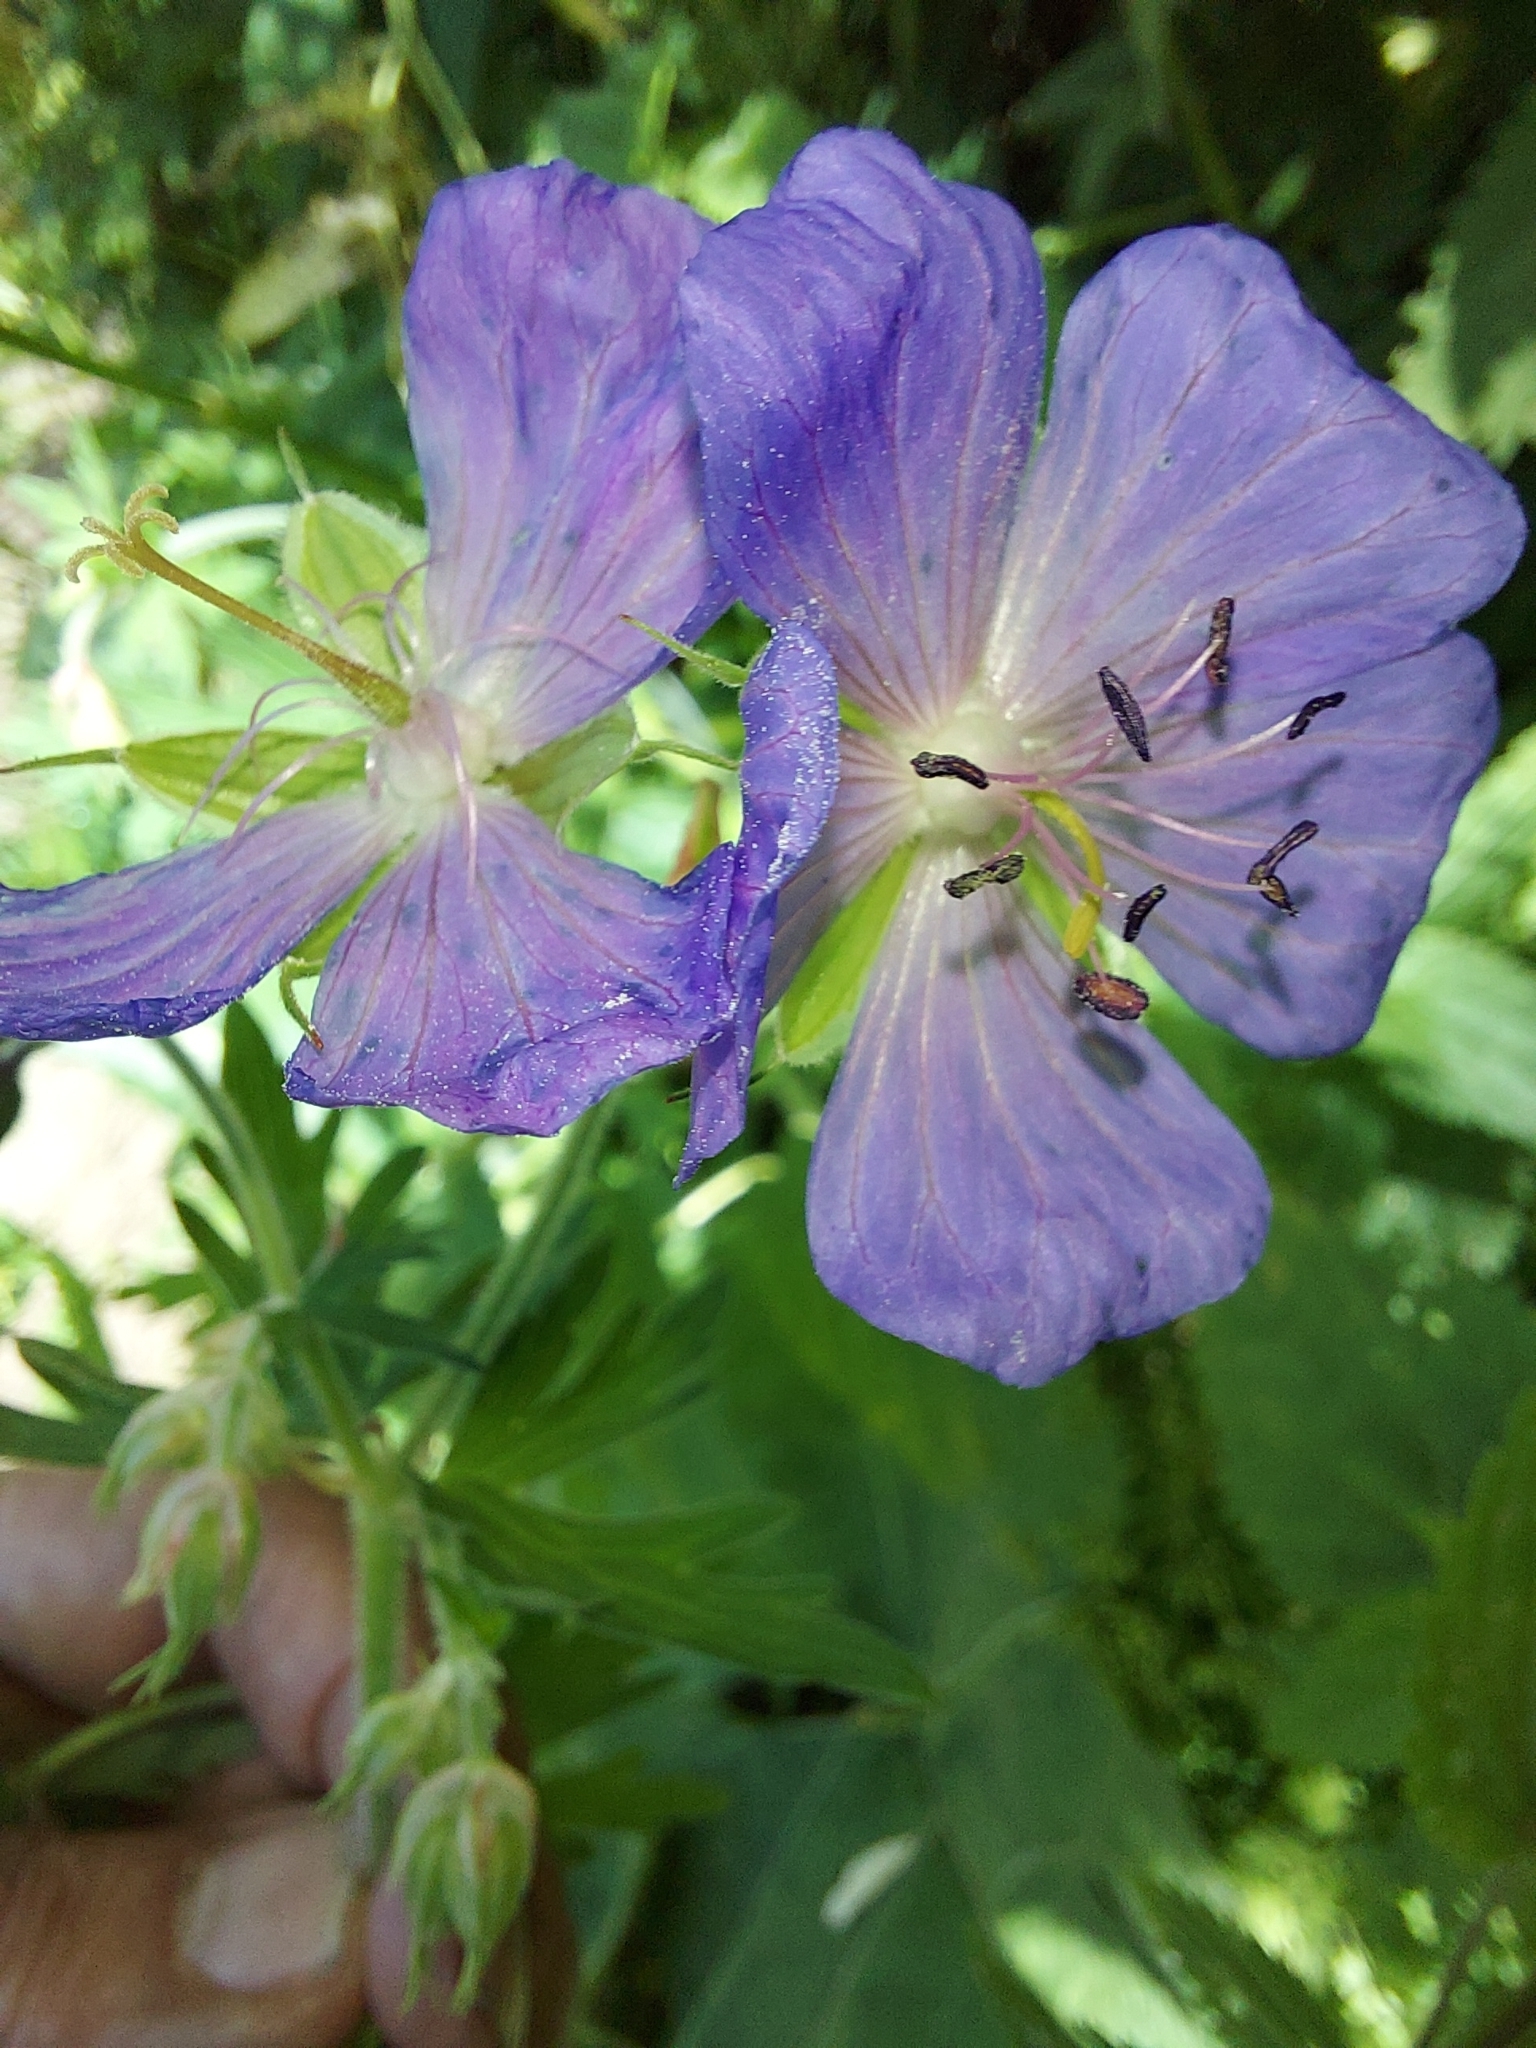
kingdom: Plantae
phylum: Tracheophyta
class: Magnoliopsida
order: Geraniales
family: Geraniaceae
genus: Geranium
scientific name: Geranium pratense
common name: Meadow crane's-bill
